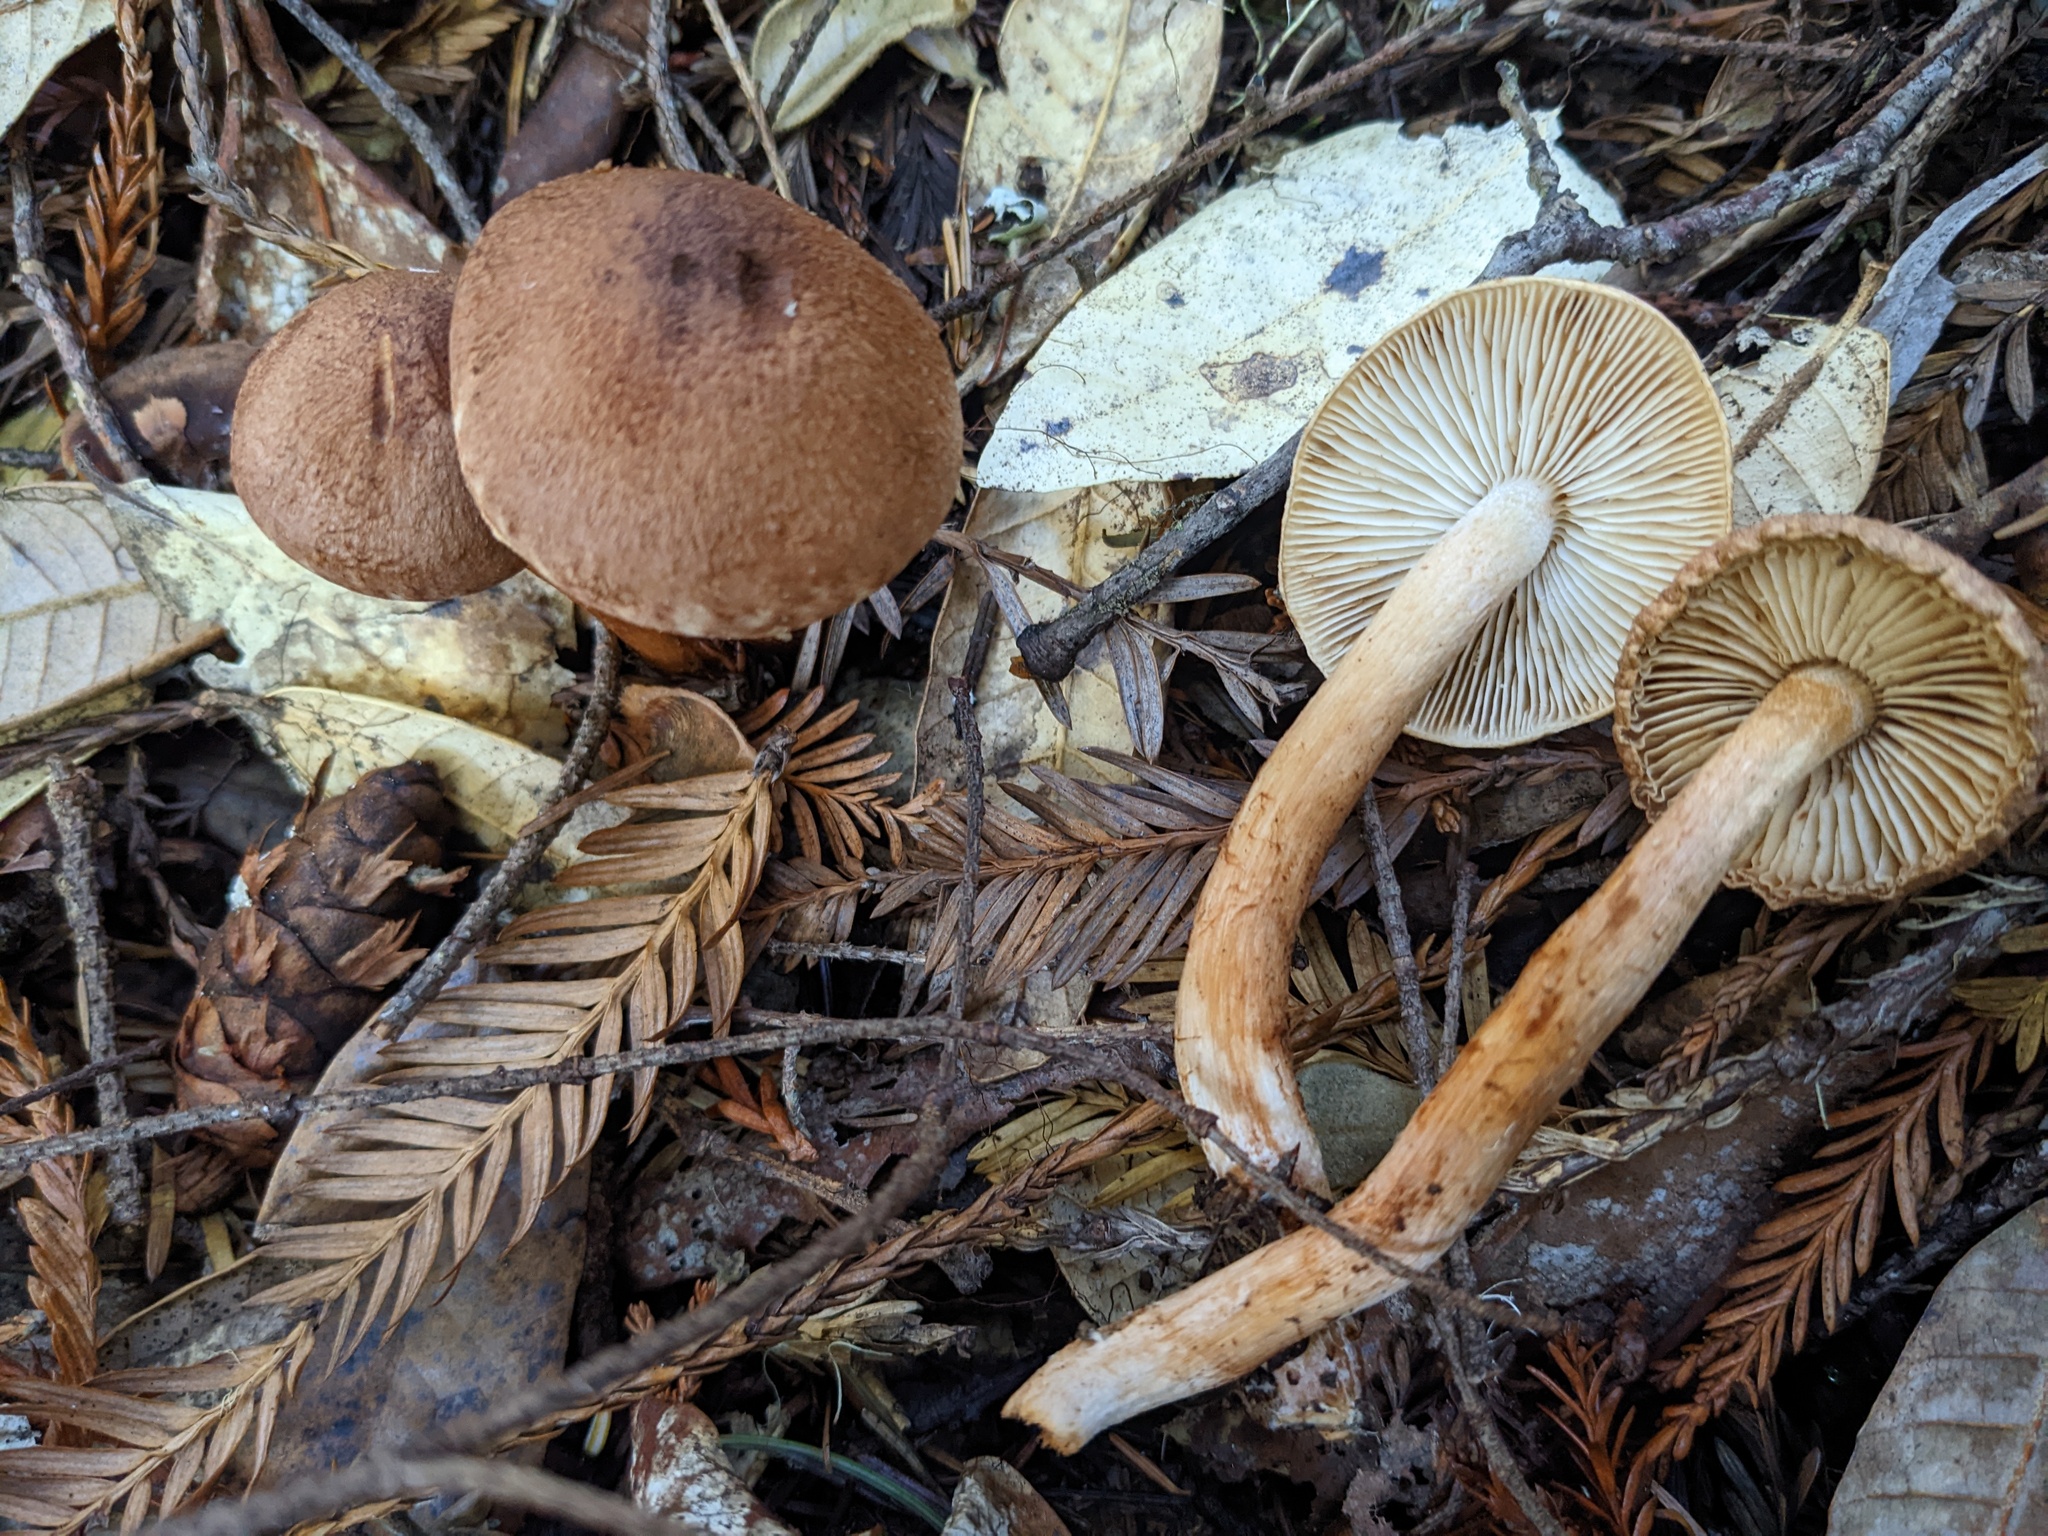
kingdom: Fungi
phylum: Basidiomycota
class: Agaricomycetes
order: Agaricales
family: Tricholomataceae
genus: Tricholoma
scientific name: Tricholoma vaccinum
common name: Scaly knight
